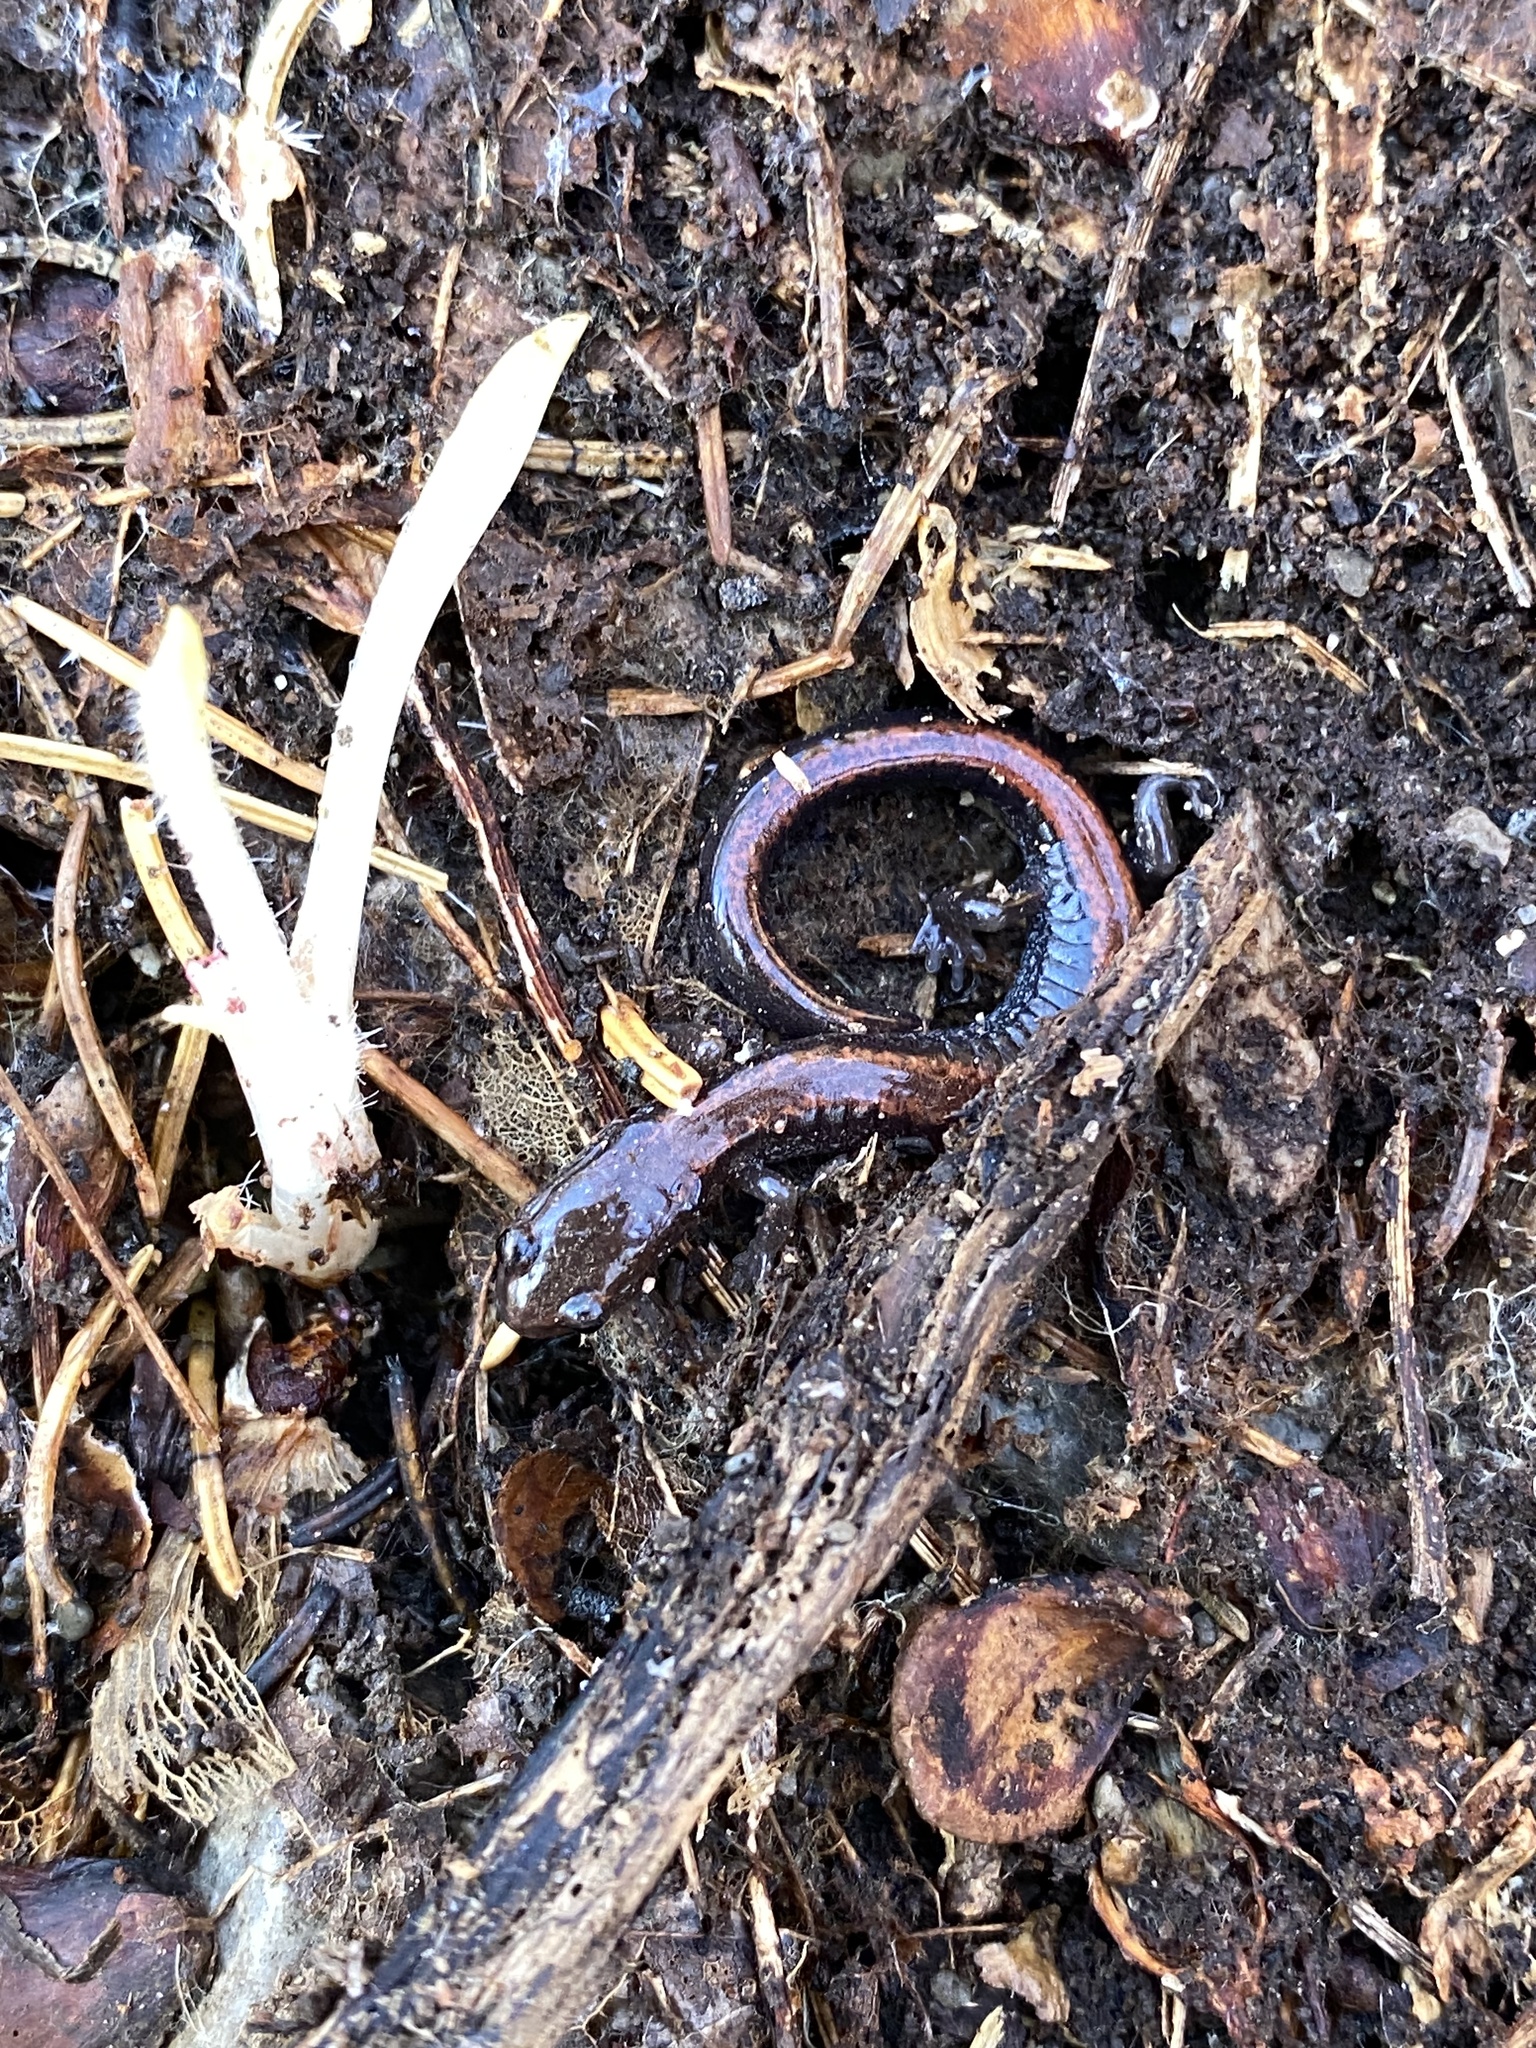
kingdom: Animalia
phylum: Chordata
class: Amphibia
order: Caudata
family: Plethodontidae
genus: Plethodon
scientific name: Plethodon cinereus
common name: Redback salamander
